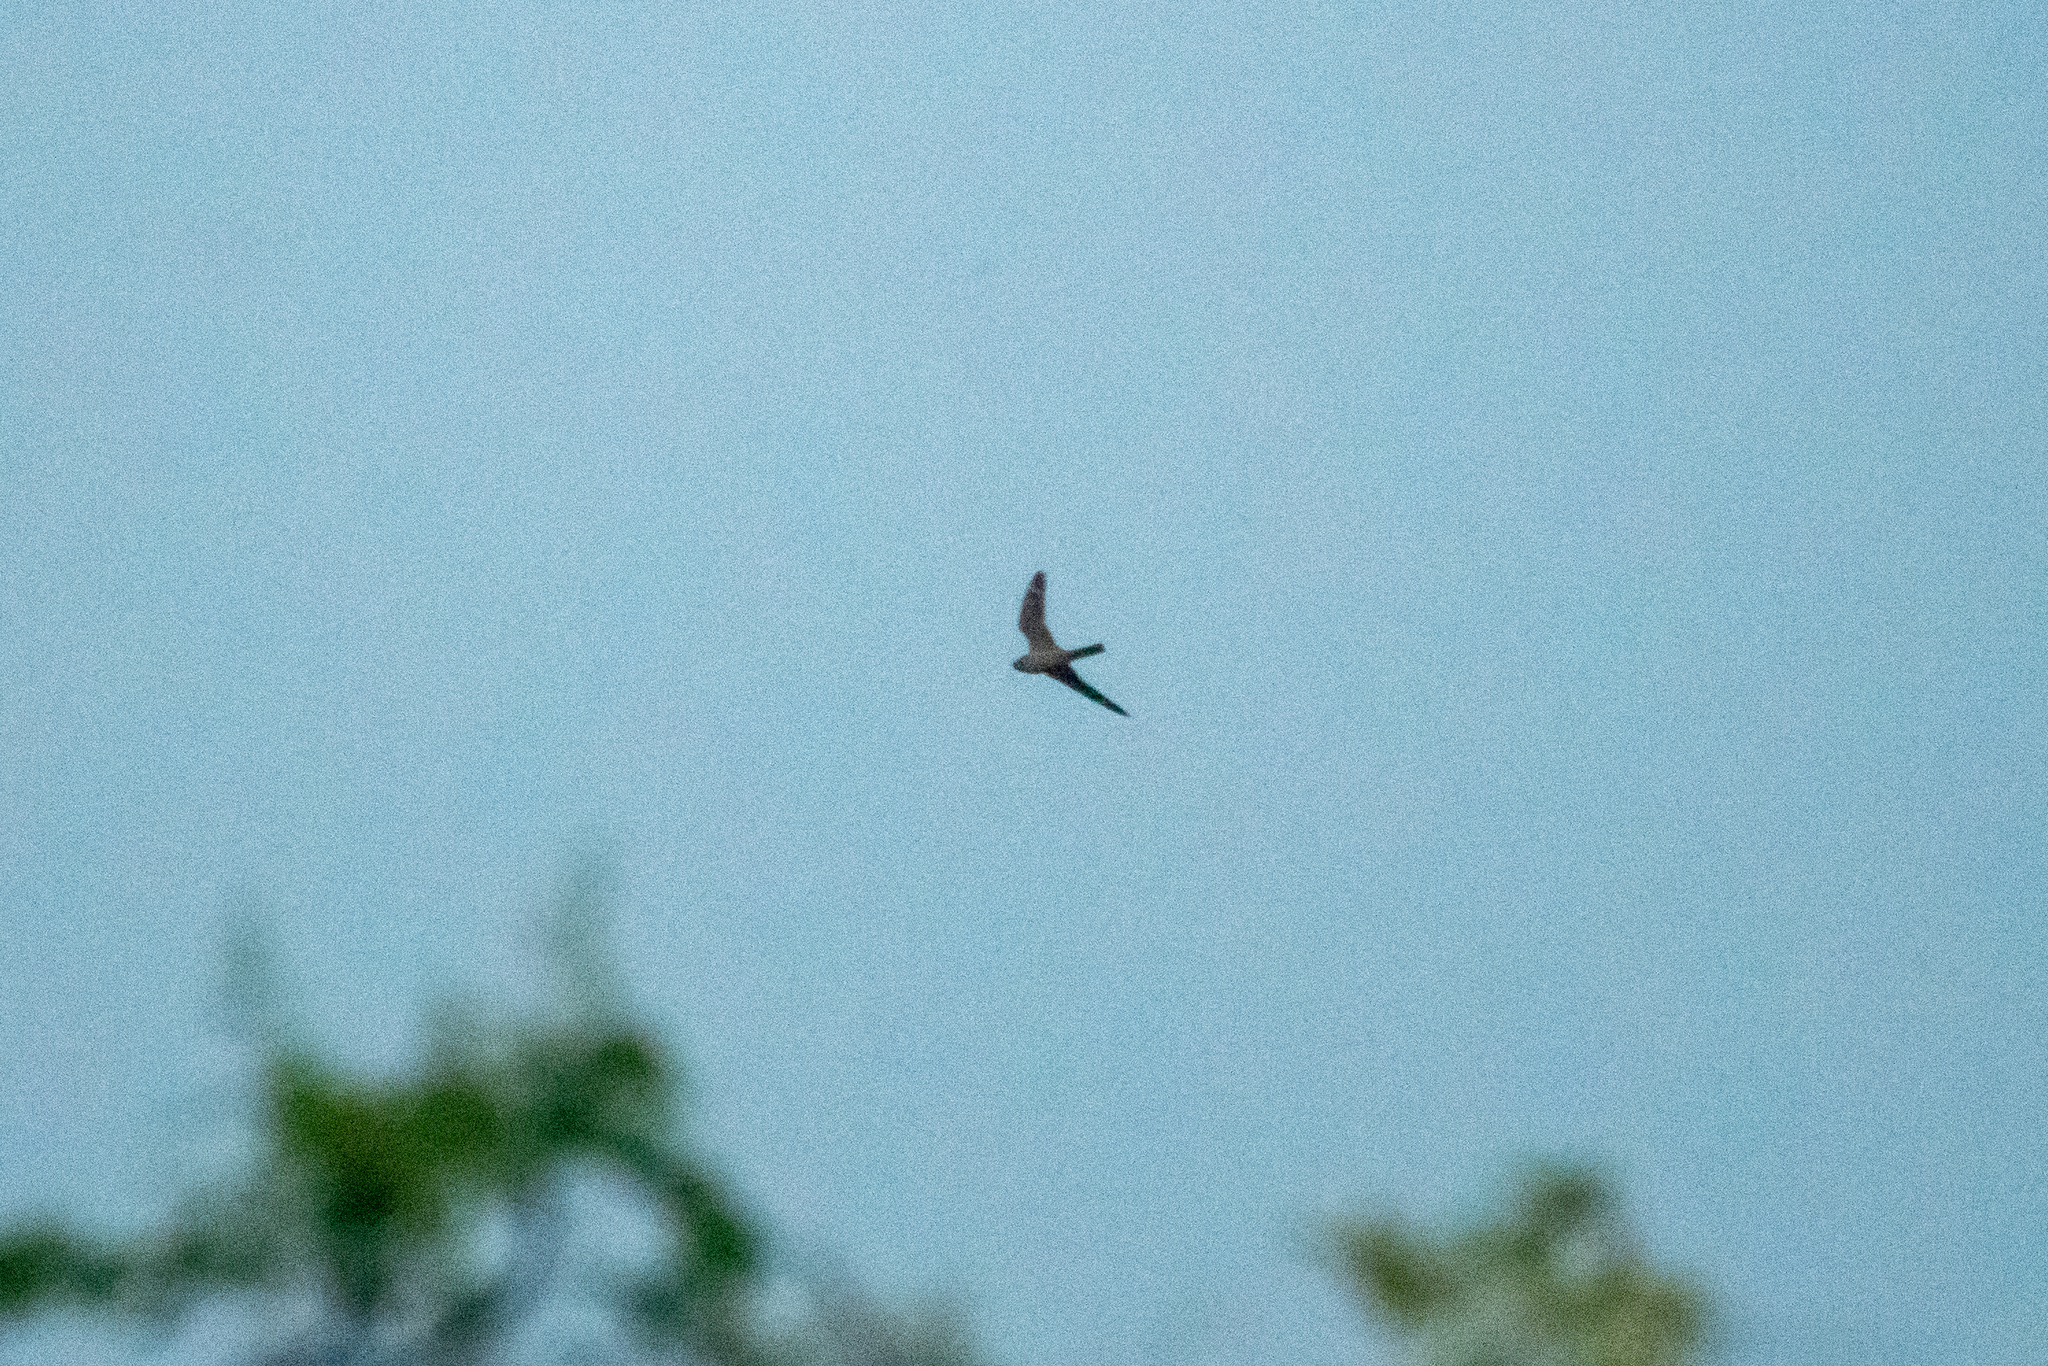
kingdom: Animalia
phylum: Chordata
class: Aves
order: Caprimulgiformes
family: Caprimulgidae
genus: Chordeiles
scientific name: Chordeiles acutipennis
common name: Lesser nighthawk
